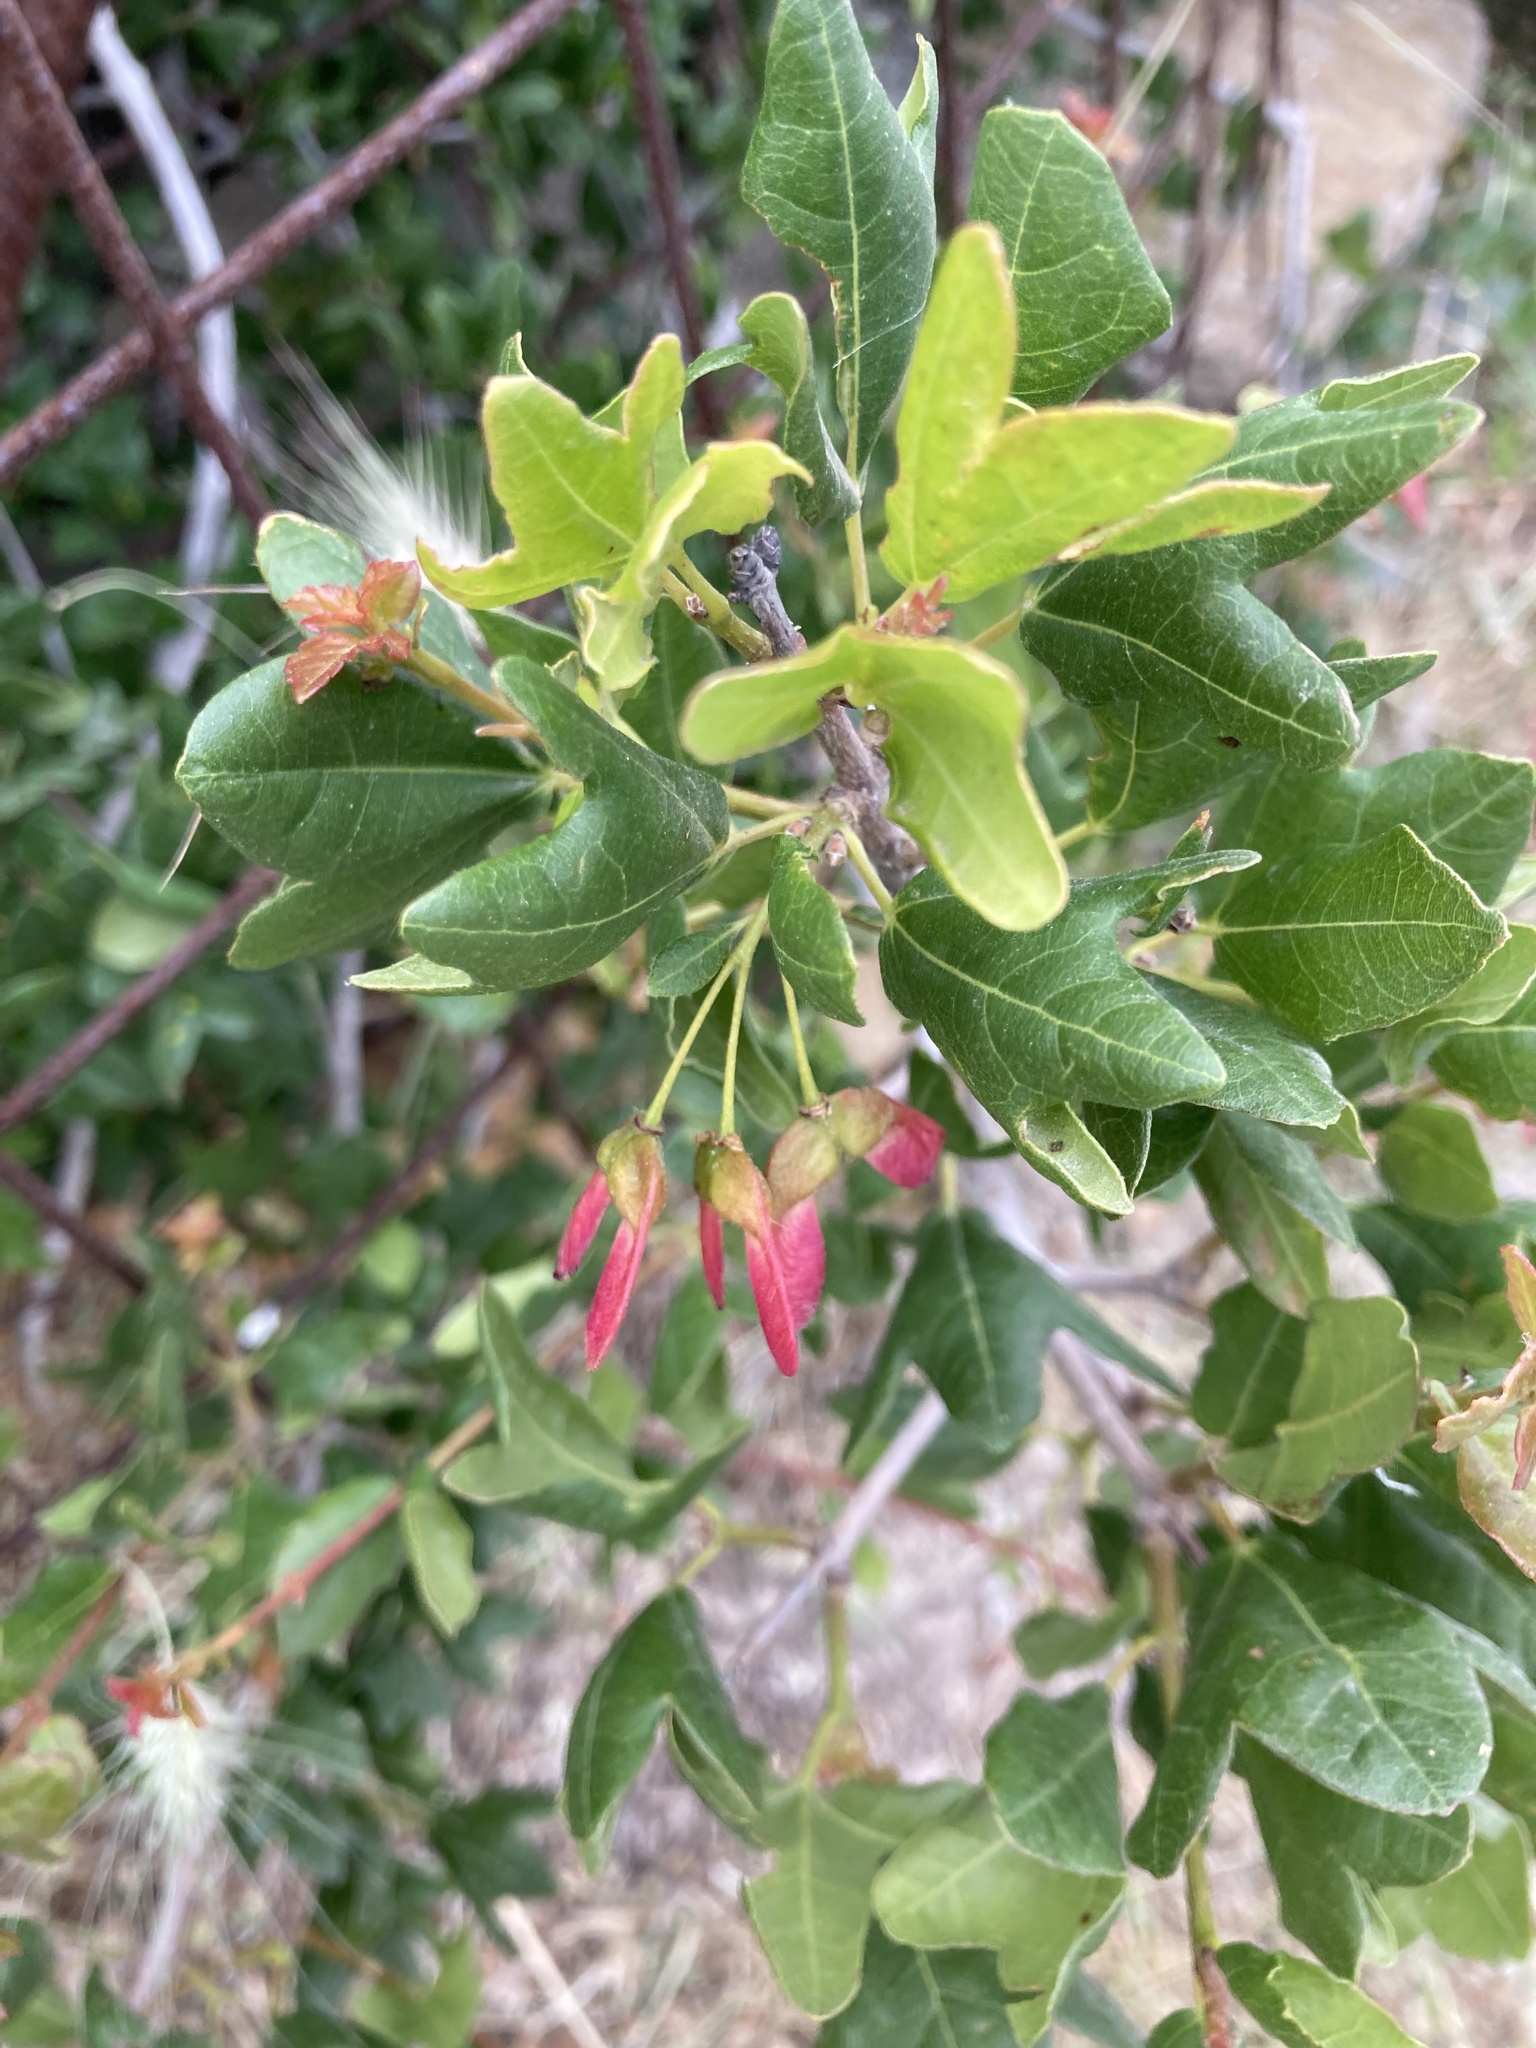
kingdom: Plantae
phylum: Tracheophyta
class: Magnoliopsida
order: Sapindales
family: Sapindaceae
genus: Acer
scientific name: Acer monspessulanum
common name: Montpellier maple
